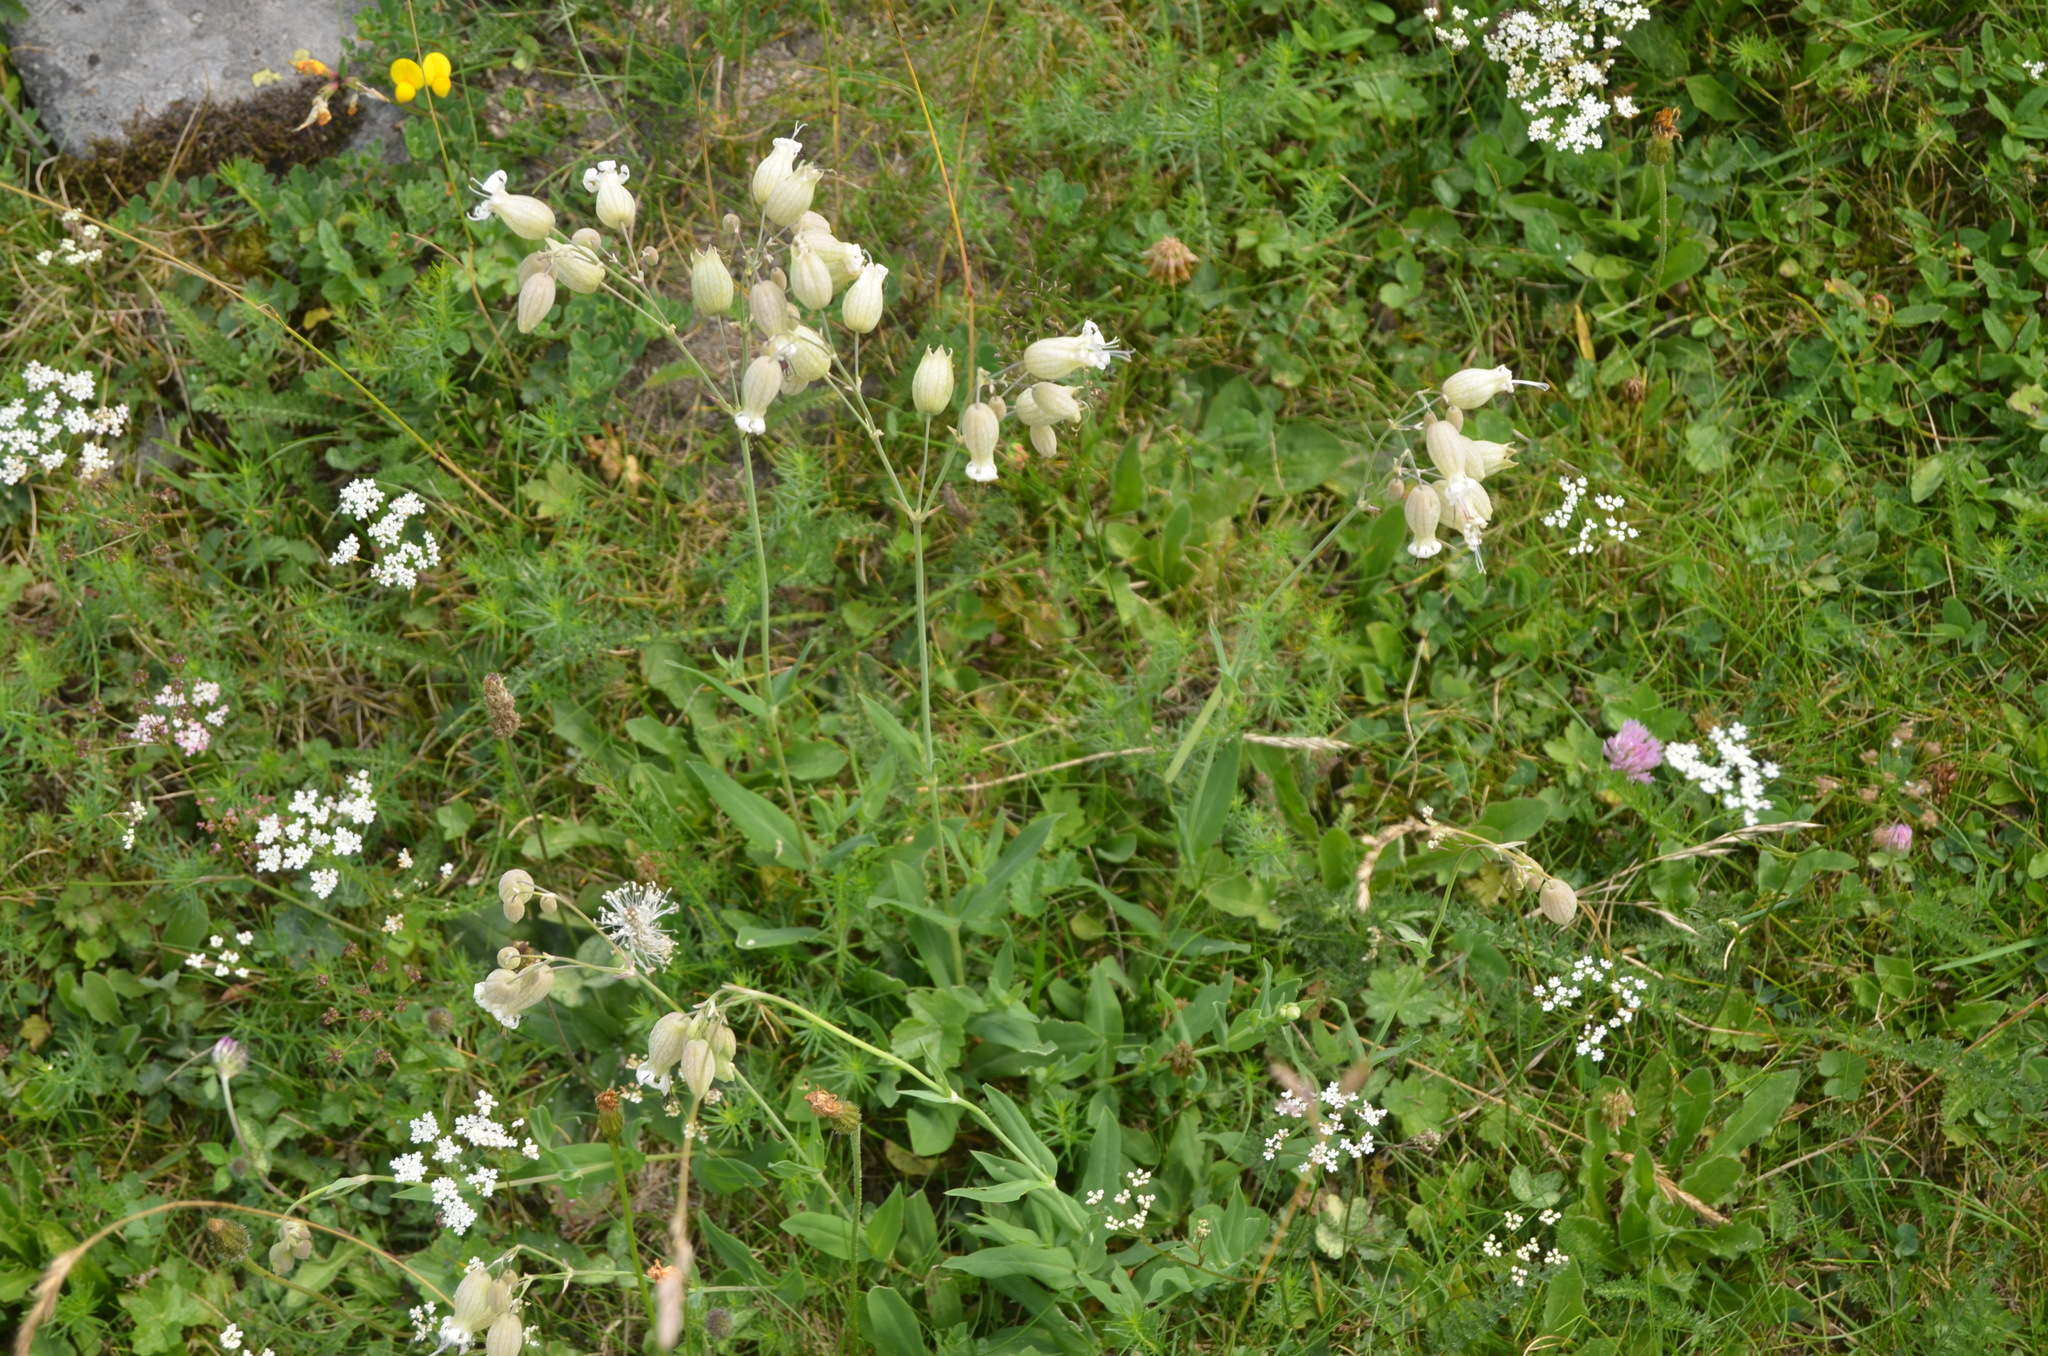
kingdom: Plantae
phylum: Tracheophyta
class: Magnoliopsida
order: Caryophyllales
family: Caryophyllaceae
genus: Silene
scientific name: Silene vulgaris
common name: Bladder campion
